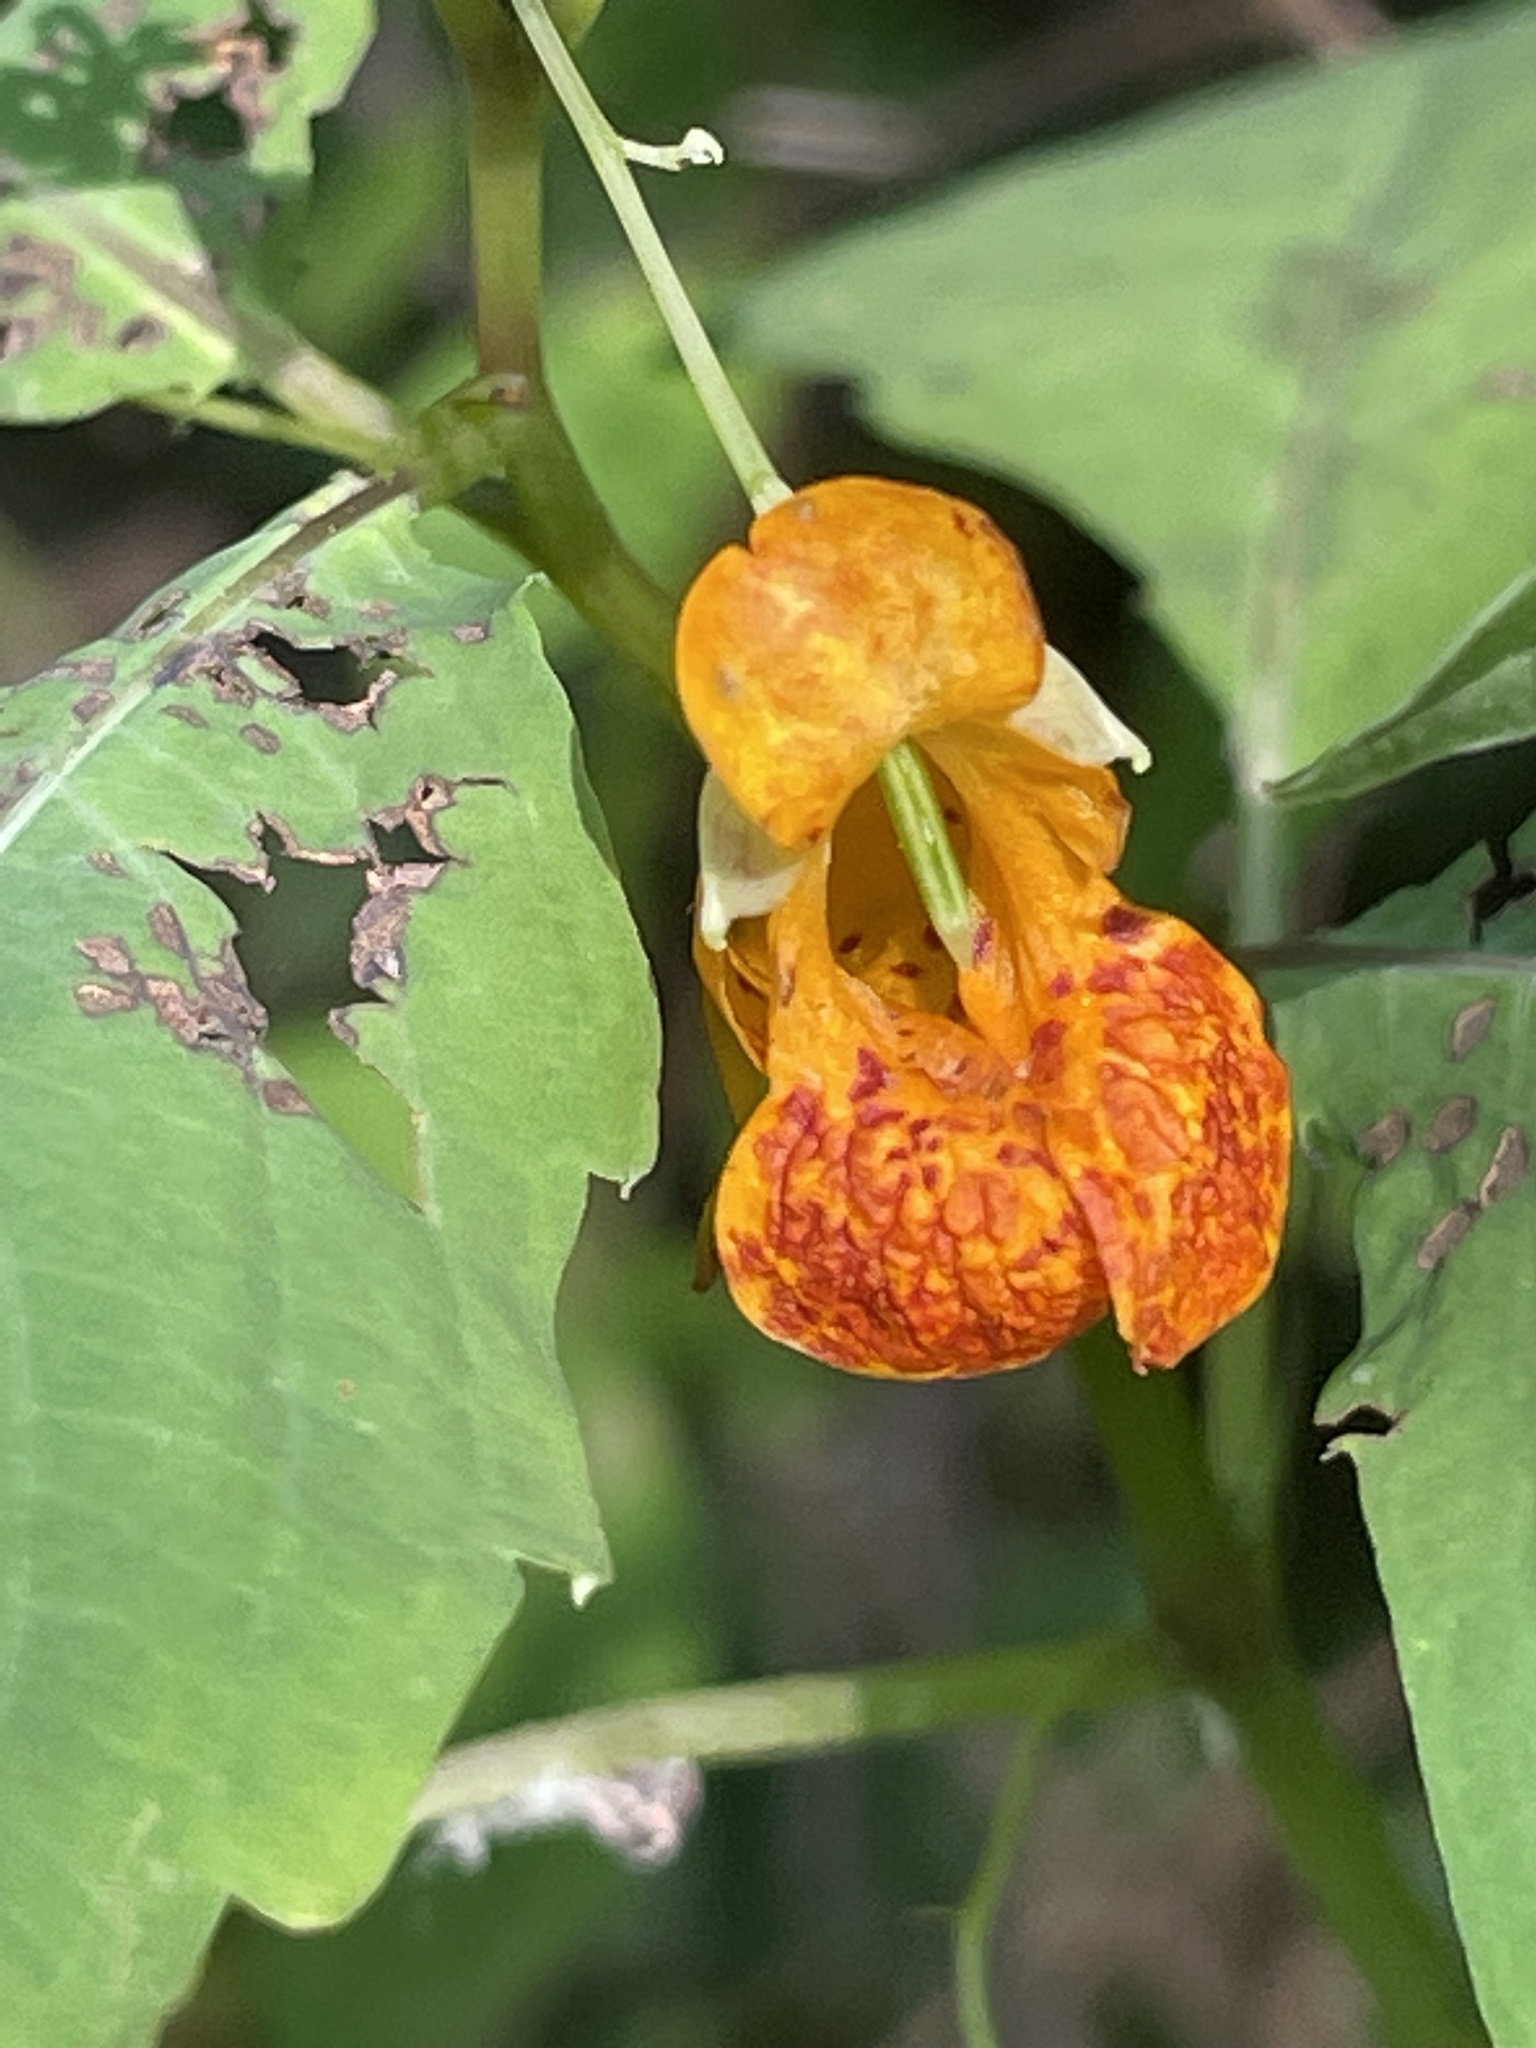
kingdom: Plantae
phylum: Tracheophyta
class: Magnoliopsida
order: Ericales
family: Balsaminaceae
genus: Impatiens
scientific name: Impatiens capensis
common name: Orange balsam
